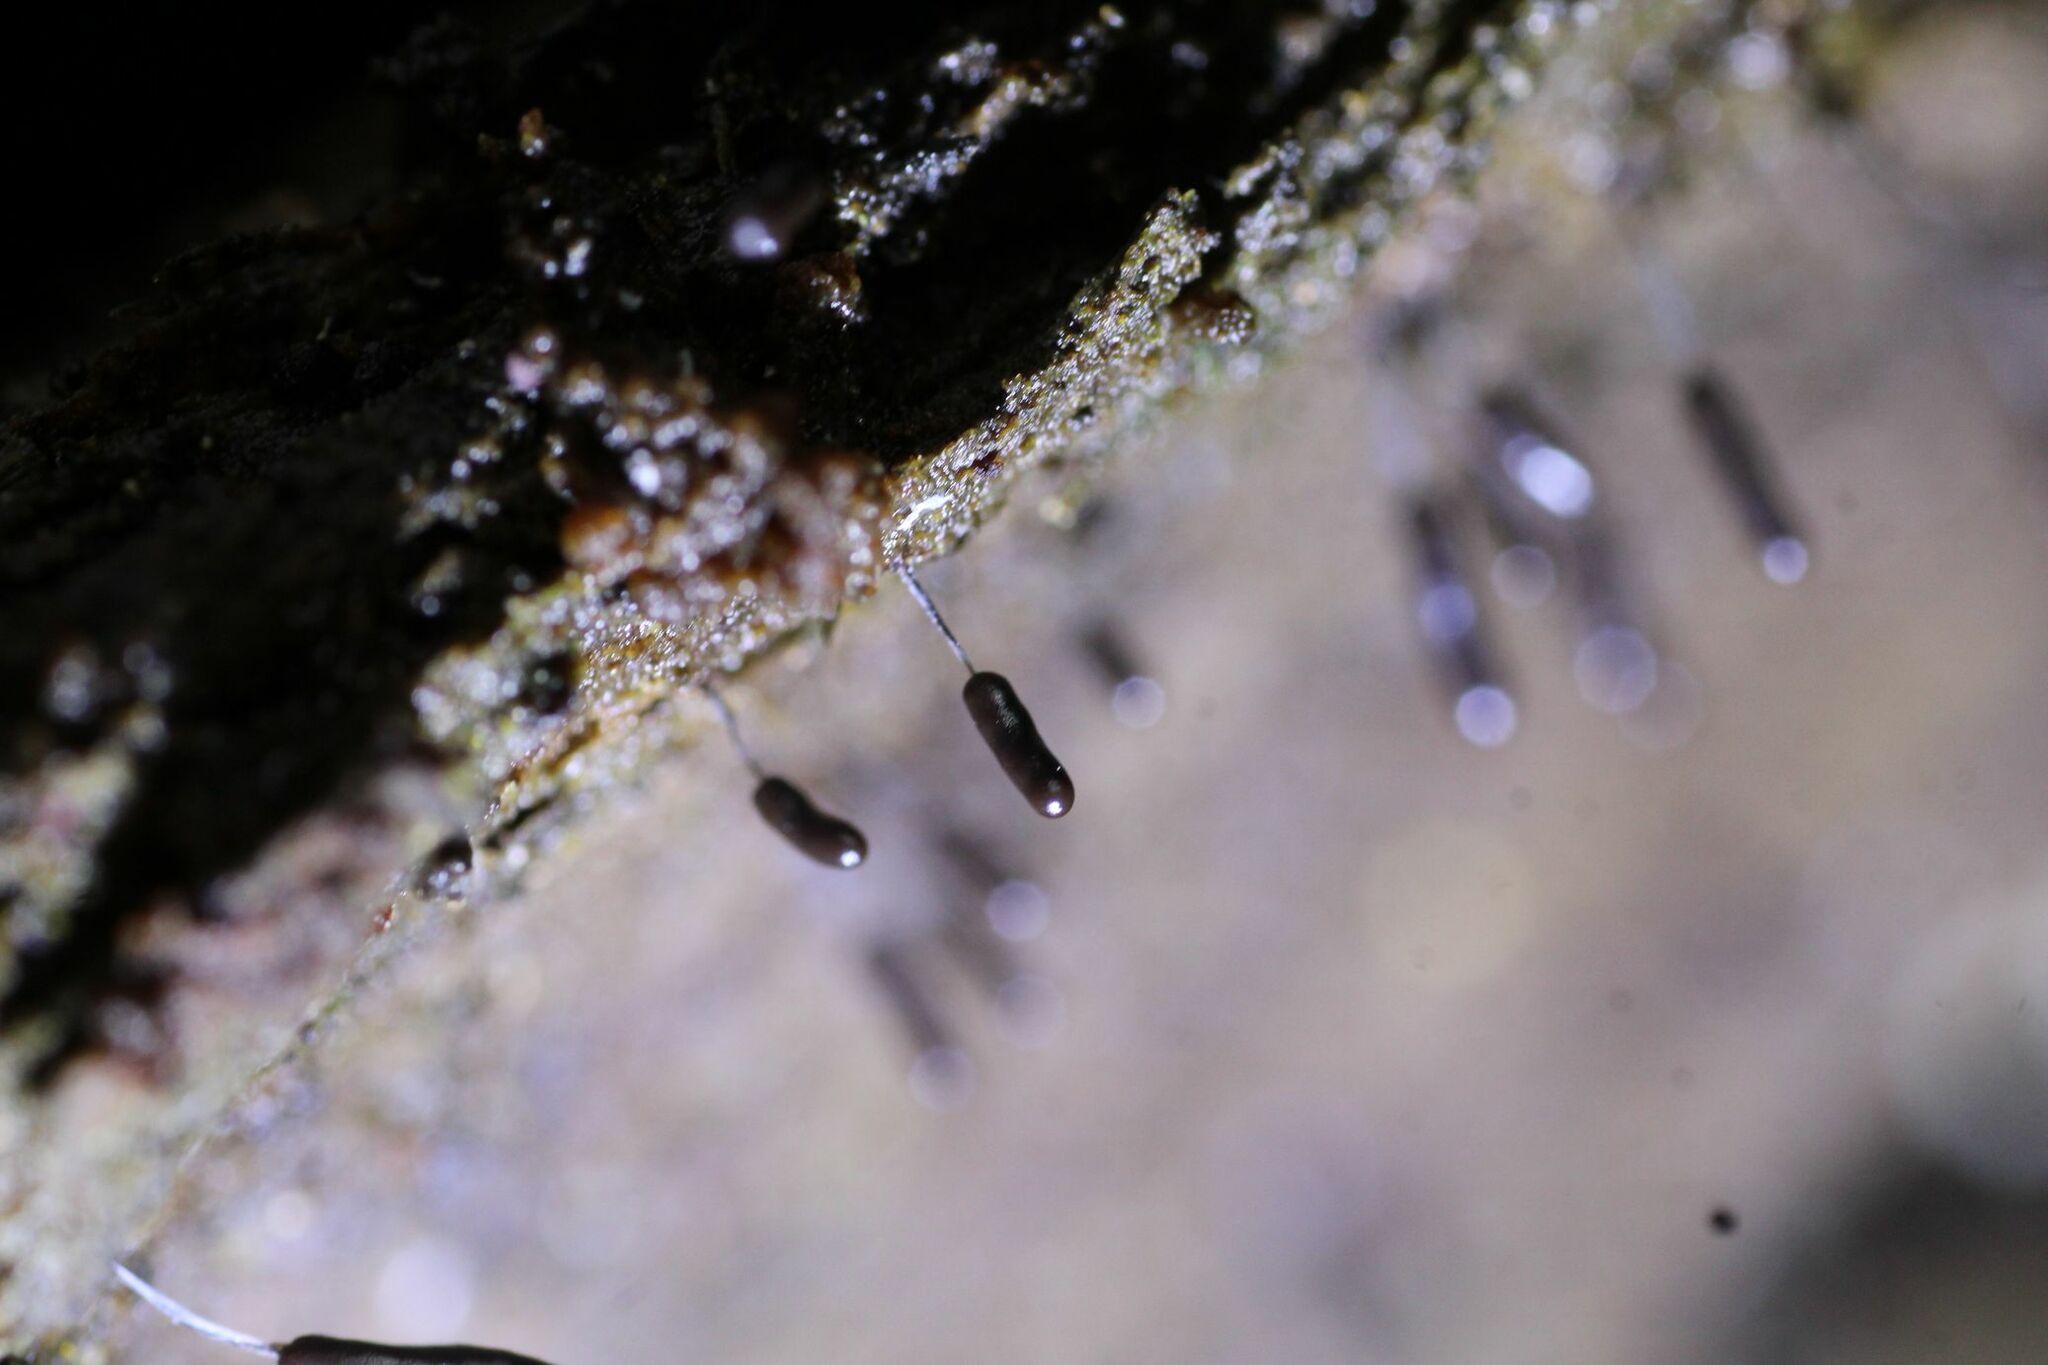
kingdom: Protozoa
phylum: Mycetozoa
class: Myxomycetes
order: Stemonitidales
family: Stemonitidaceae
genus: Stemonitopsis
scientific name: Stemonitopsis typhina
